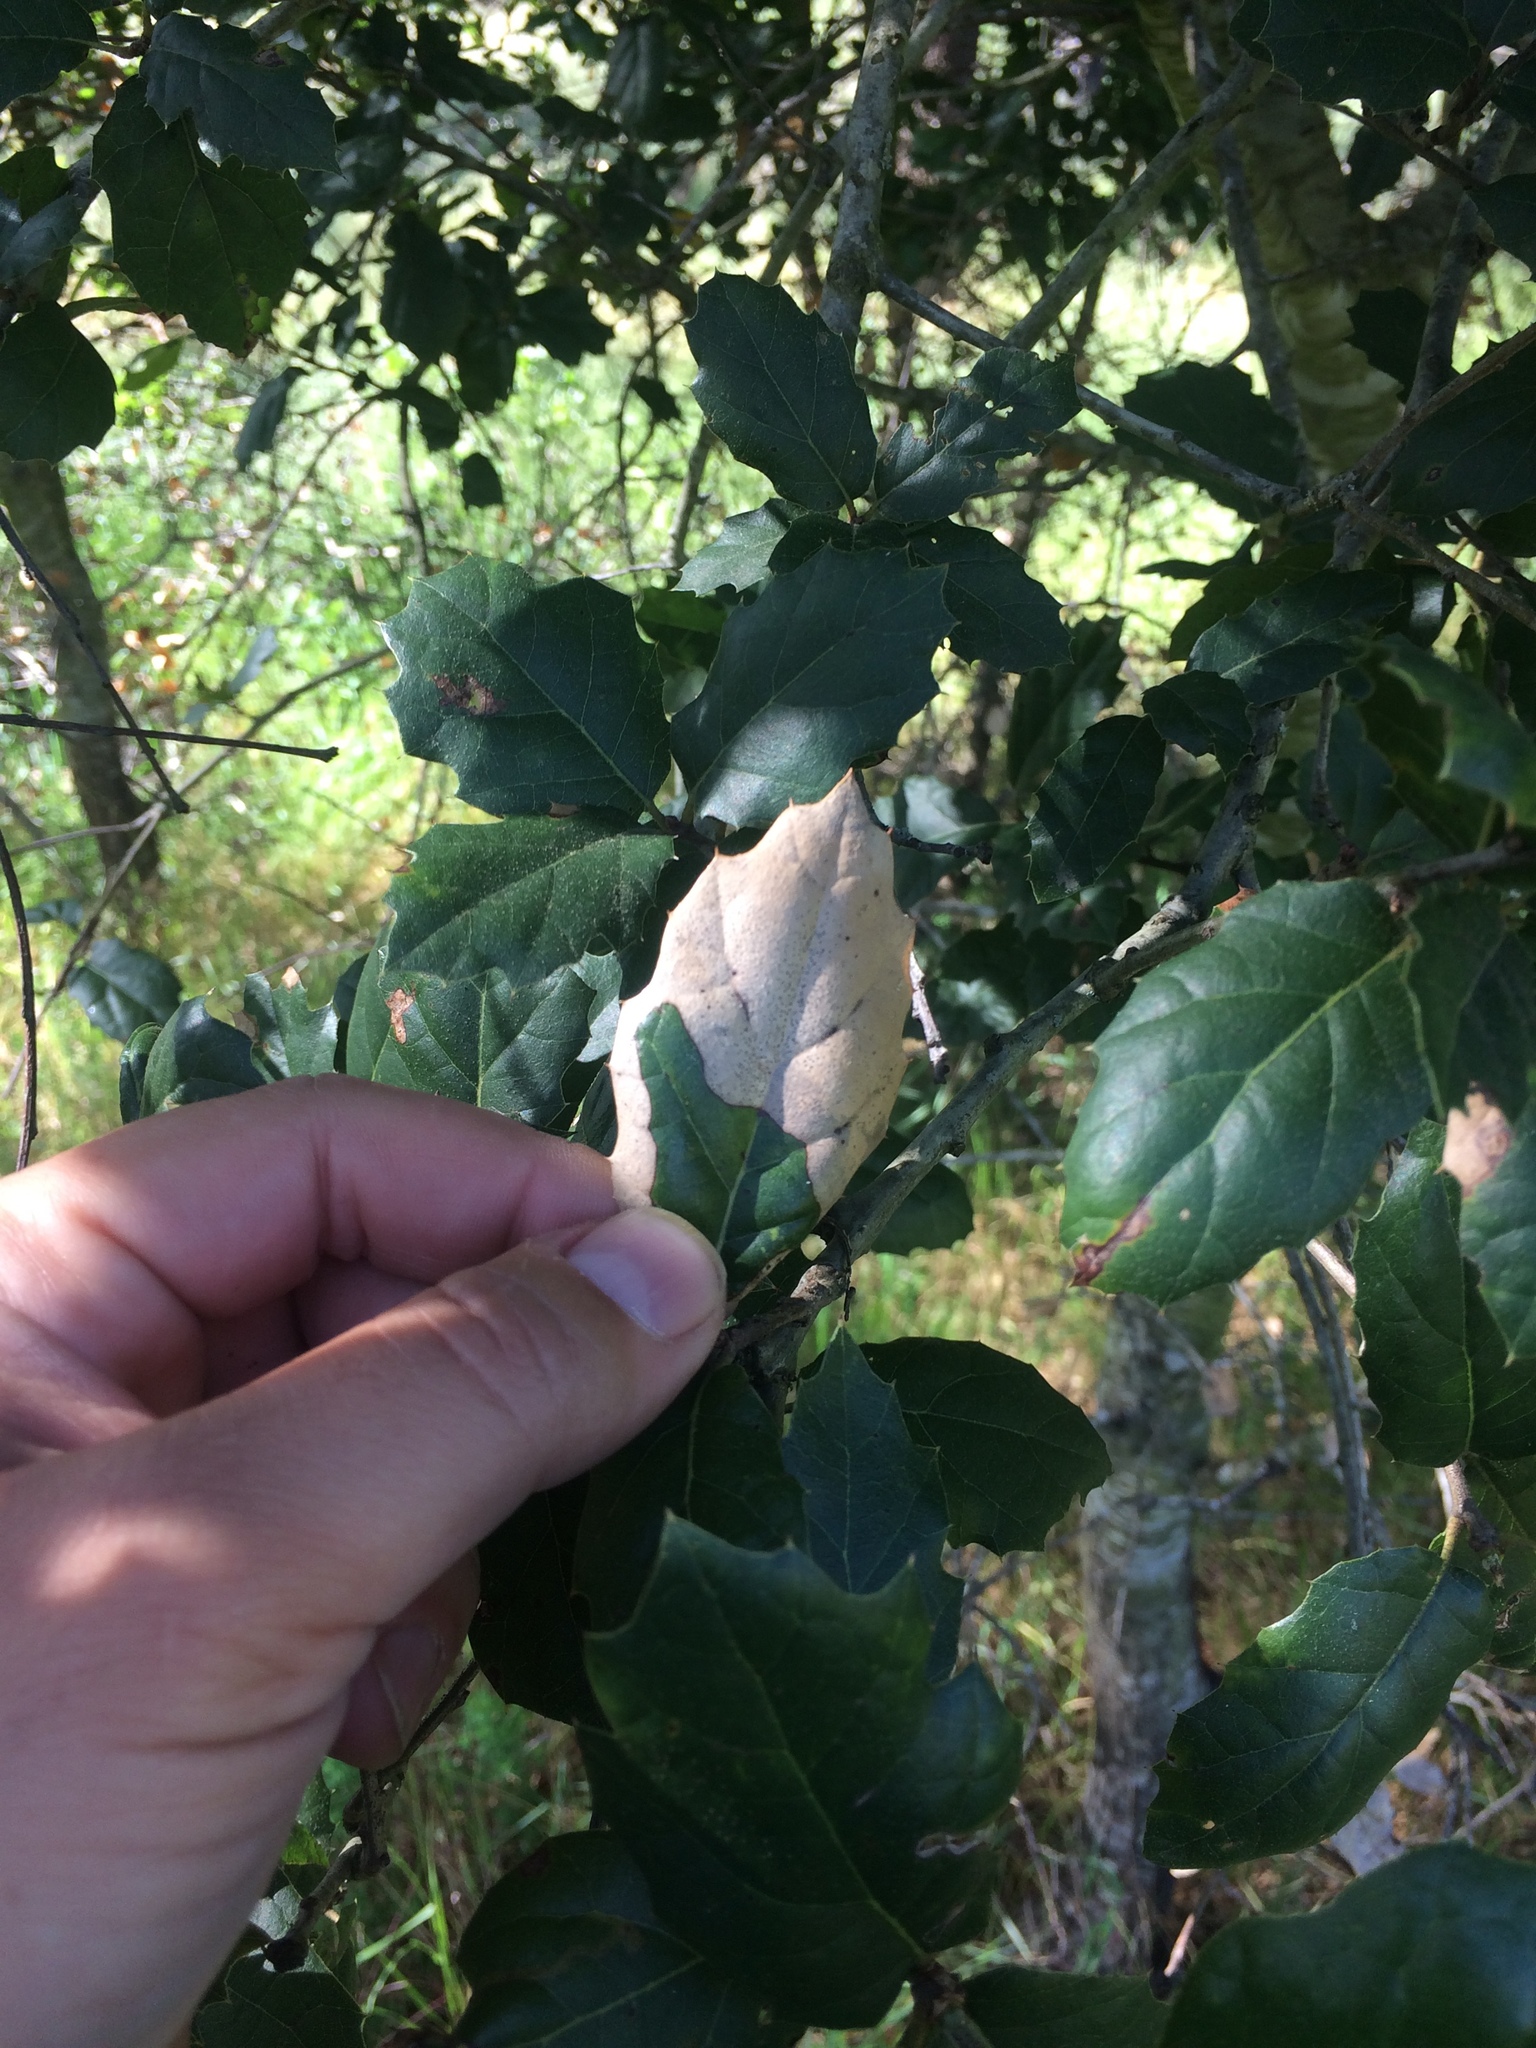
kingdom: Plantae
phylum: Tracheophyta
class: Magnoliopsida
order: Fagales
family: Fagaceae
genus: Quercus
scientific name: Quercus agrifolia
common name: California live oak
